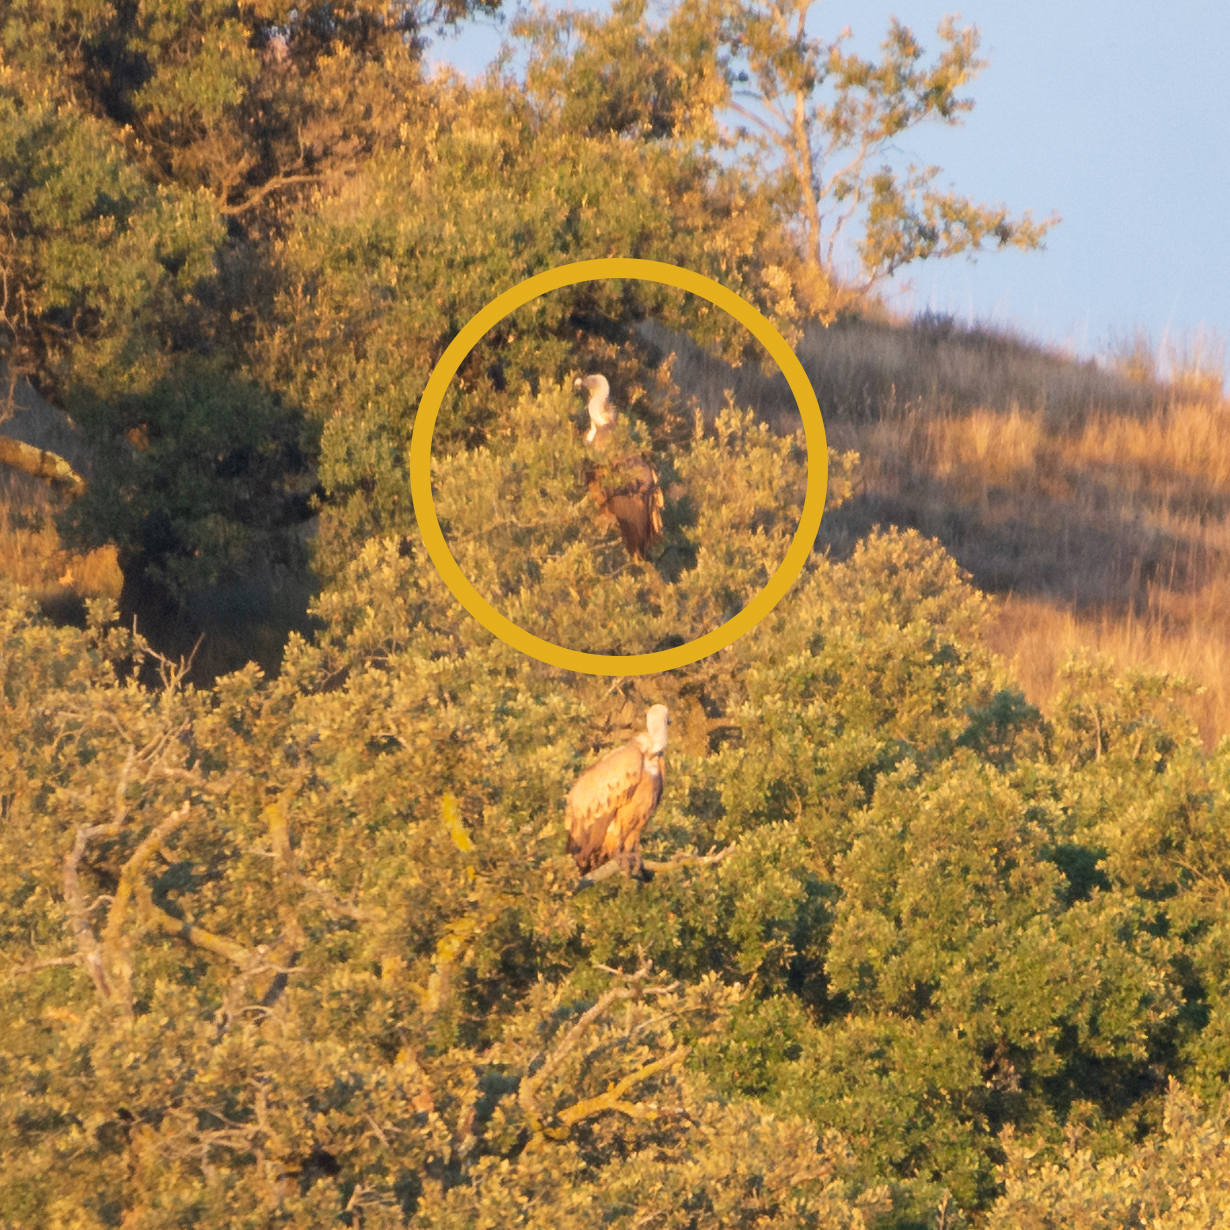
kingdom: Animalia
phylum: Chordata
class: Aves
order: Accipitriformes
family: Accipitridae
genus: Gyps
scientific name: Gyps fulvus
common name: Griffon vulture
